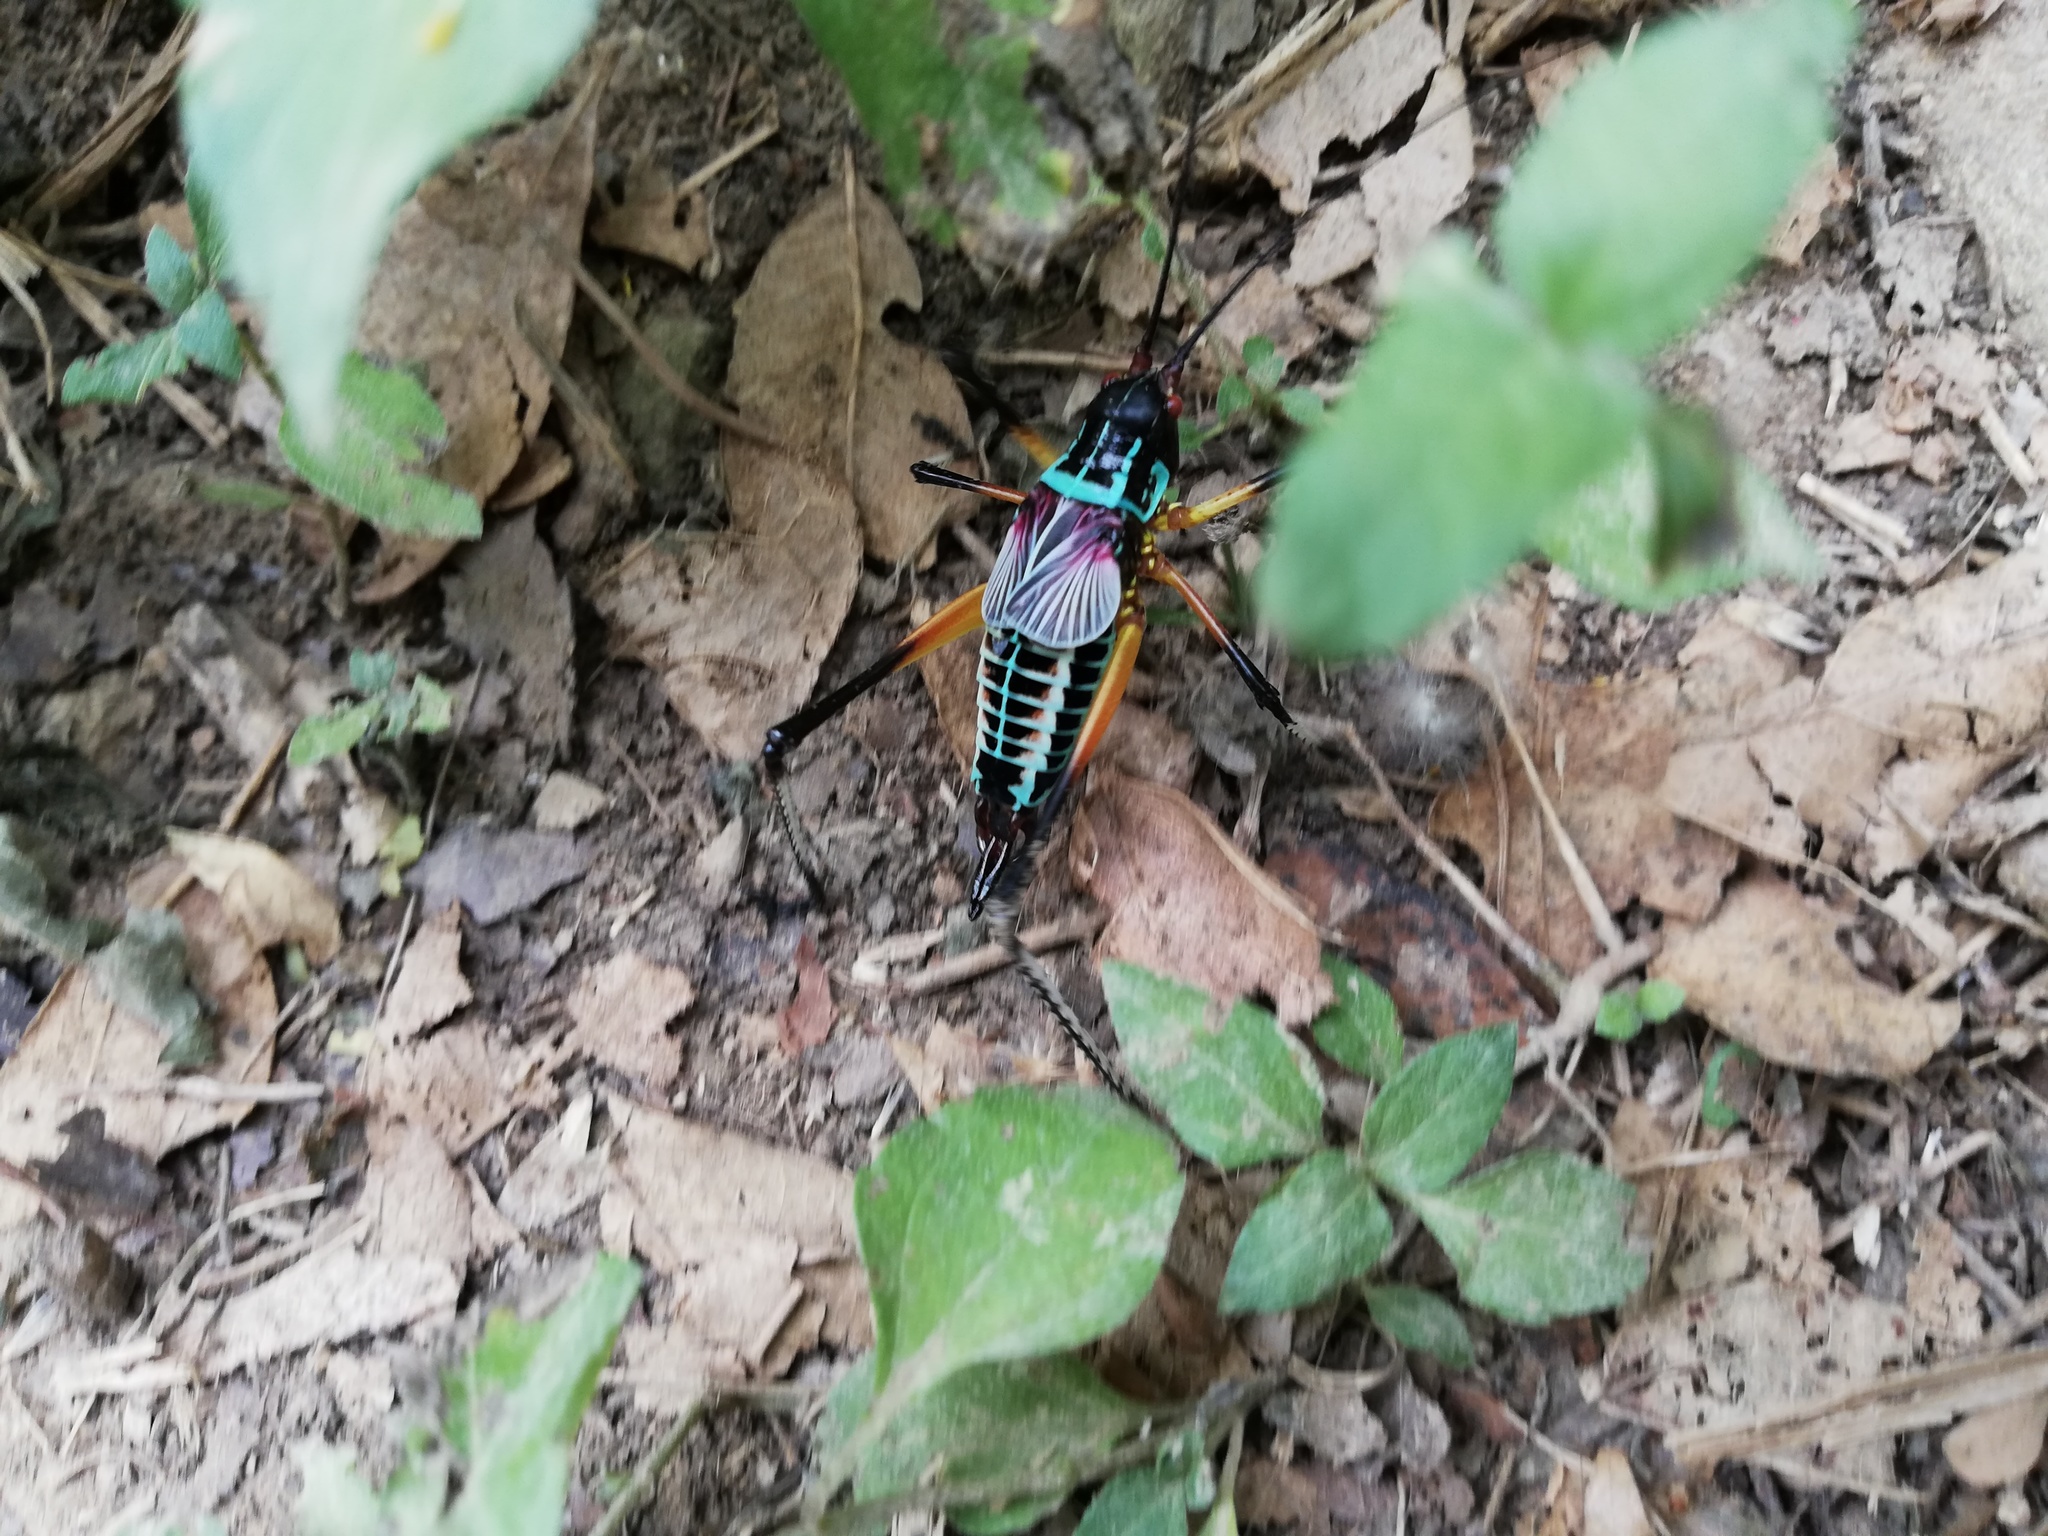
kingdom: Animalia
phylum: Arthropoda
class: Insecta
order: Orthoptera
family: Tettigoniidae
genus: Pterophylla
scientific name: Pterophylla beltrani
